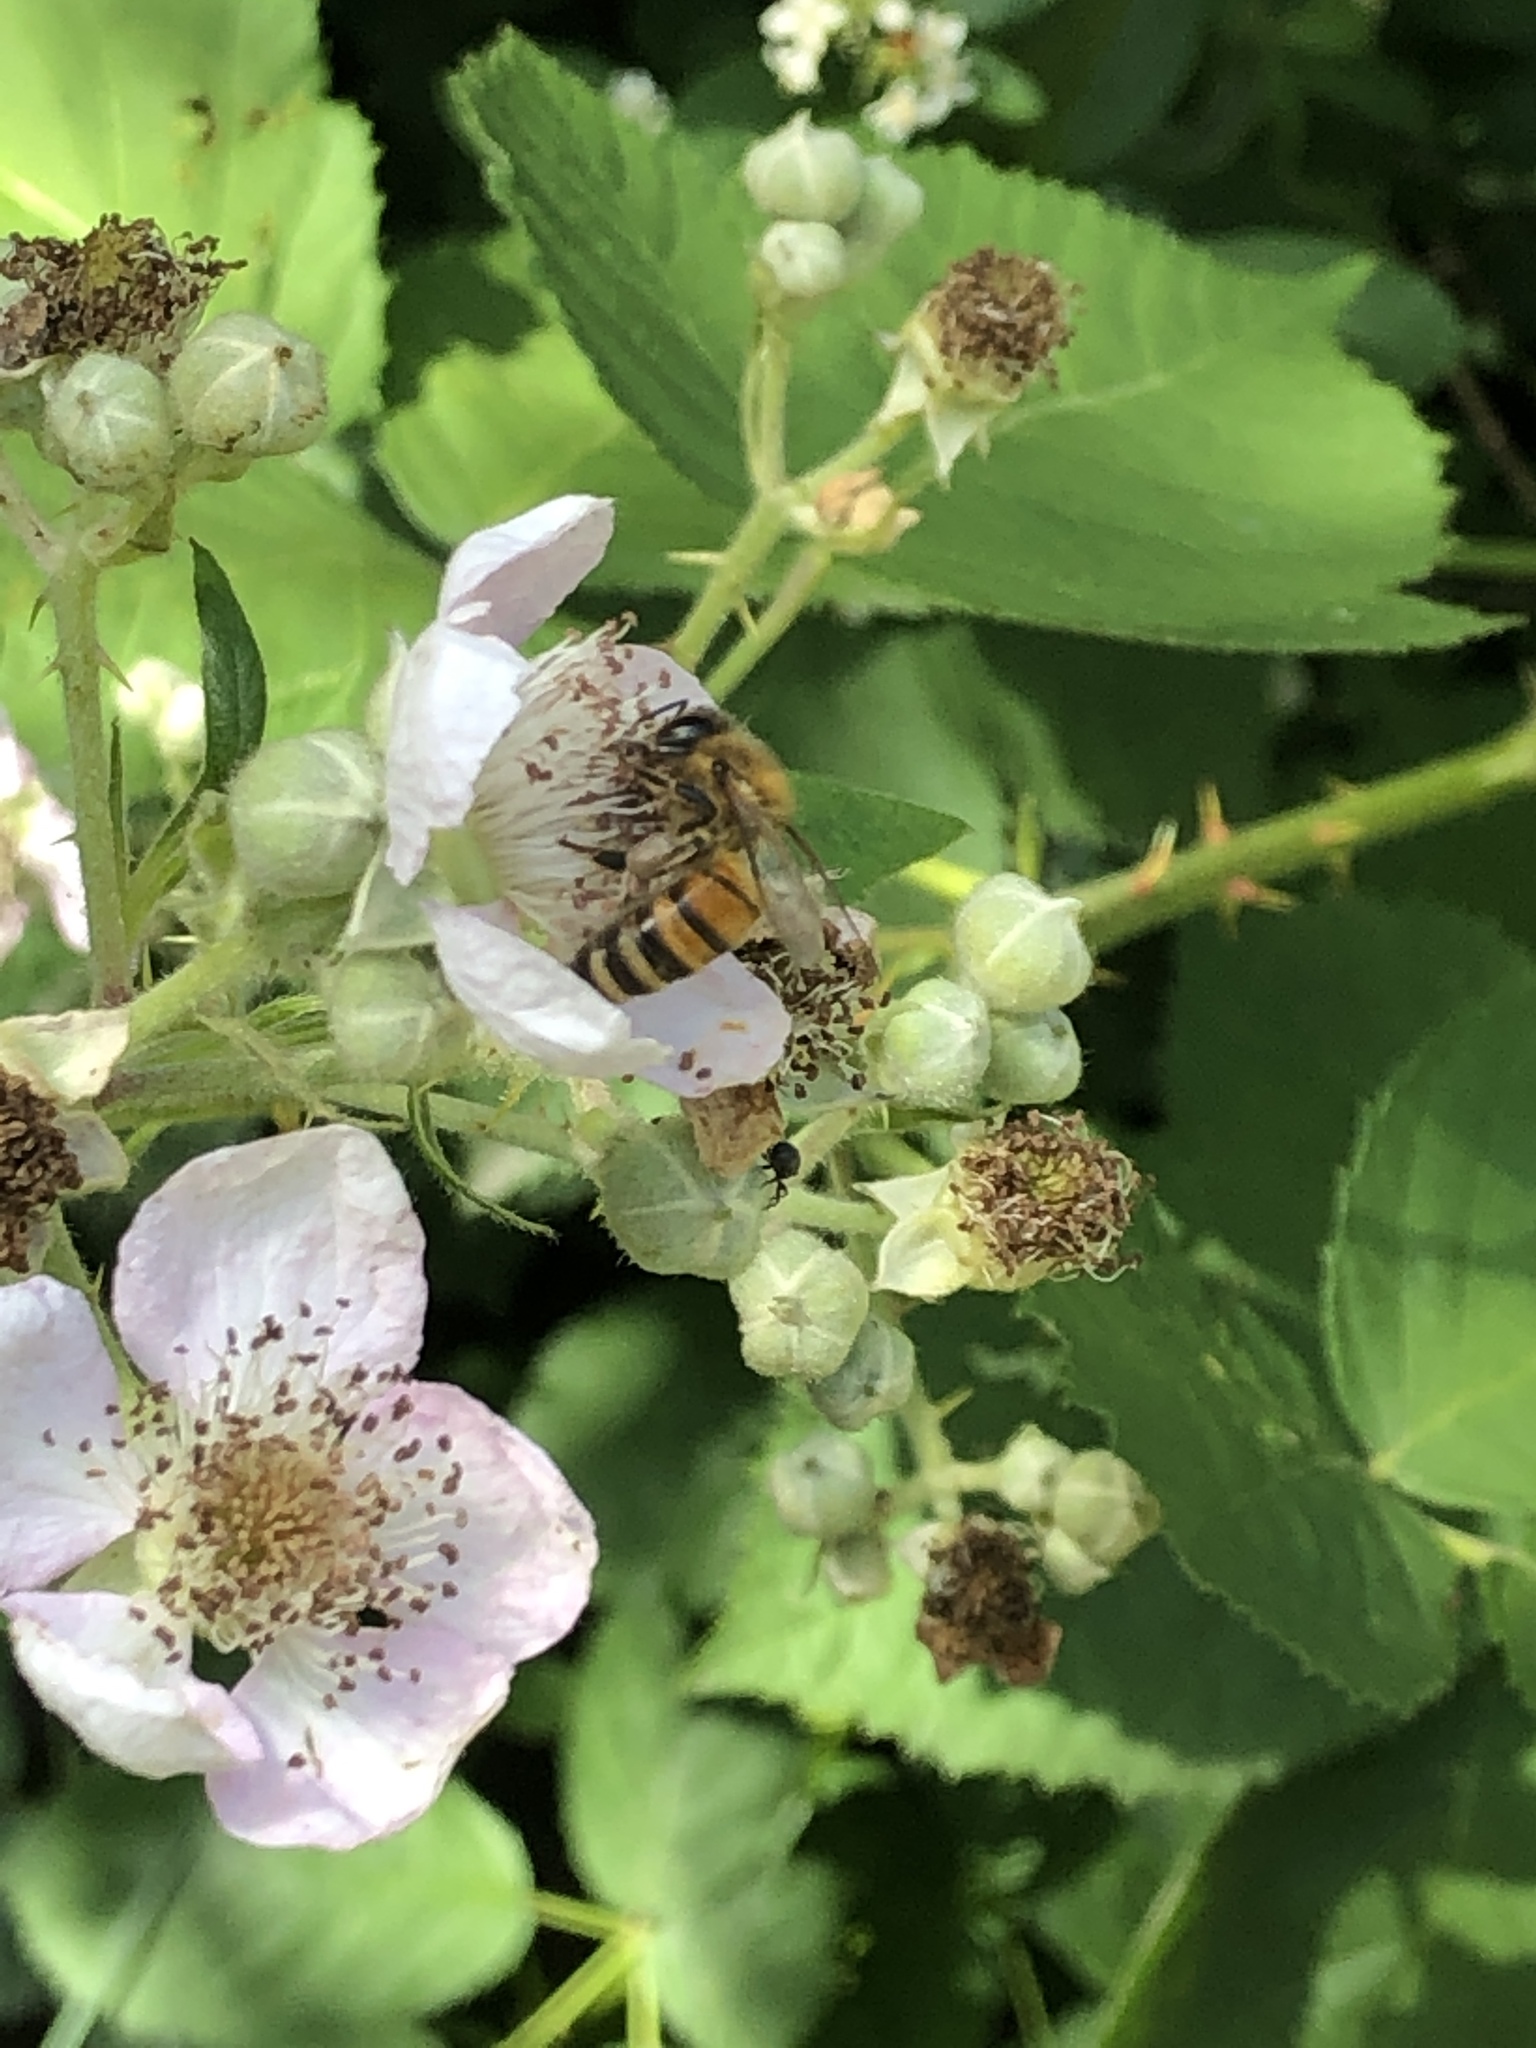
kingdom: Animalia
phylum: Arthropoda
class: Insecta
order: Hymenoptera
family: Apidae
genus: Apis
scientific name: Apis mellifera
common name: Honey bee
